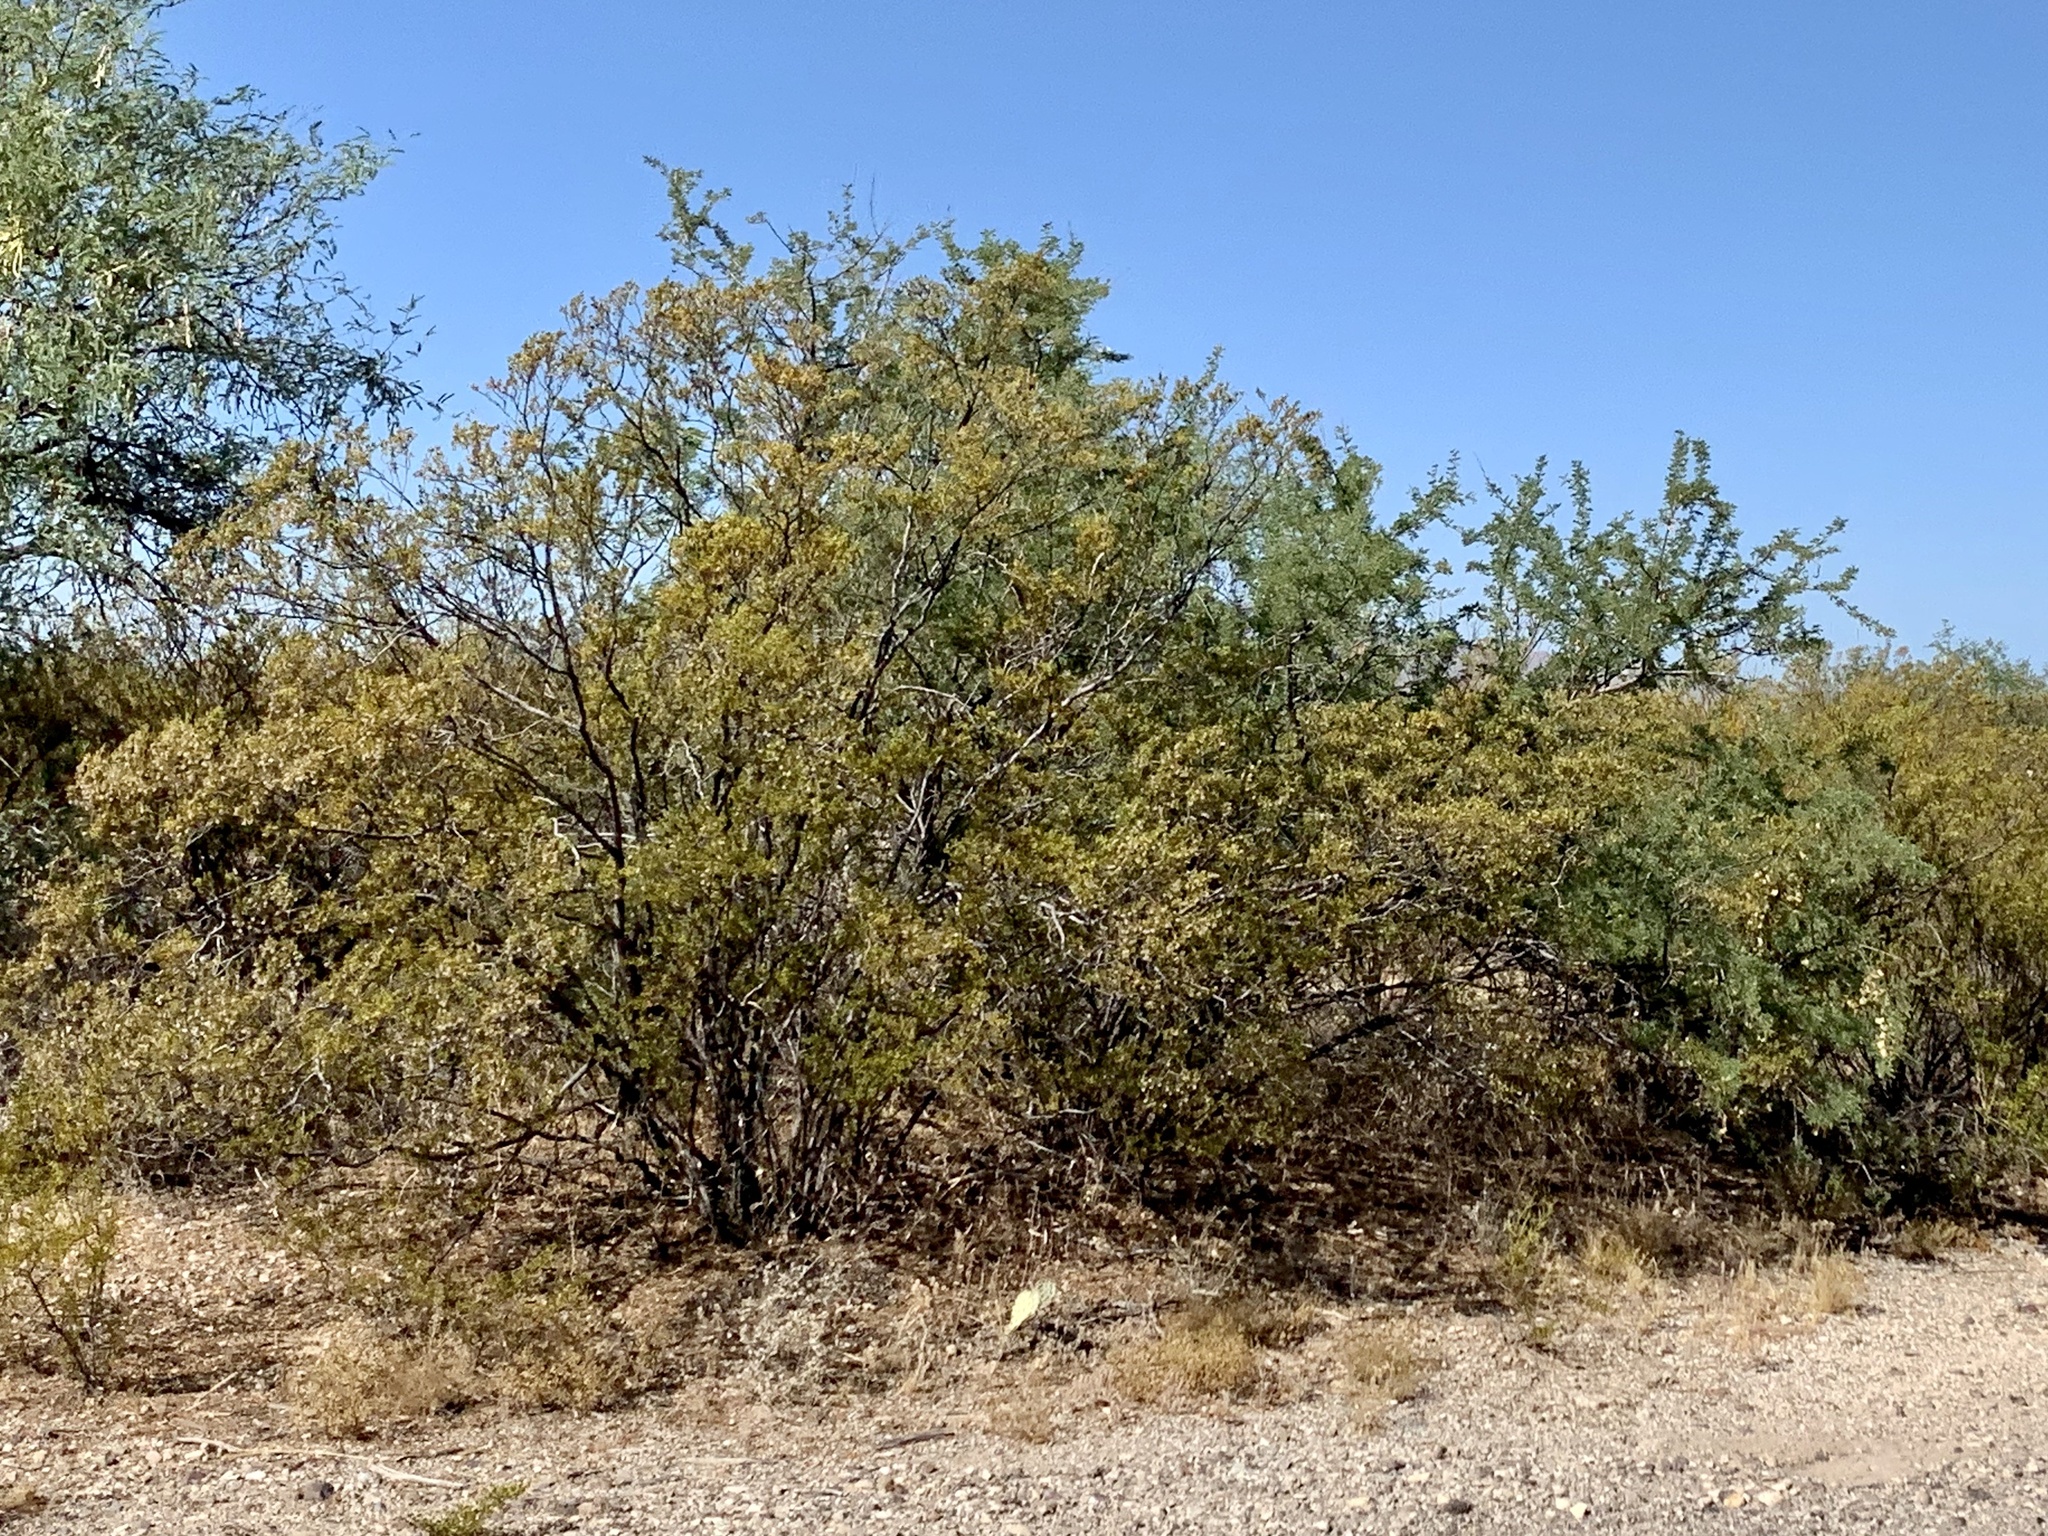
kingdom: Plantae
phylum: Tracheophyta
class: Magnoliopsida
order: Zygophyllales
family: Zygophyllaceae
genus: Larrea
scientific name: Larrea tridentata
